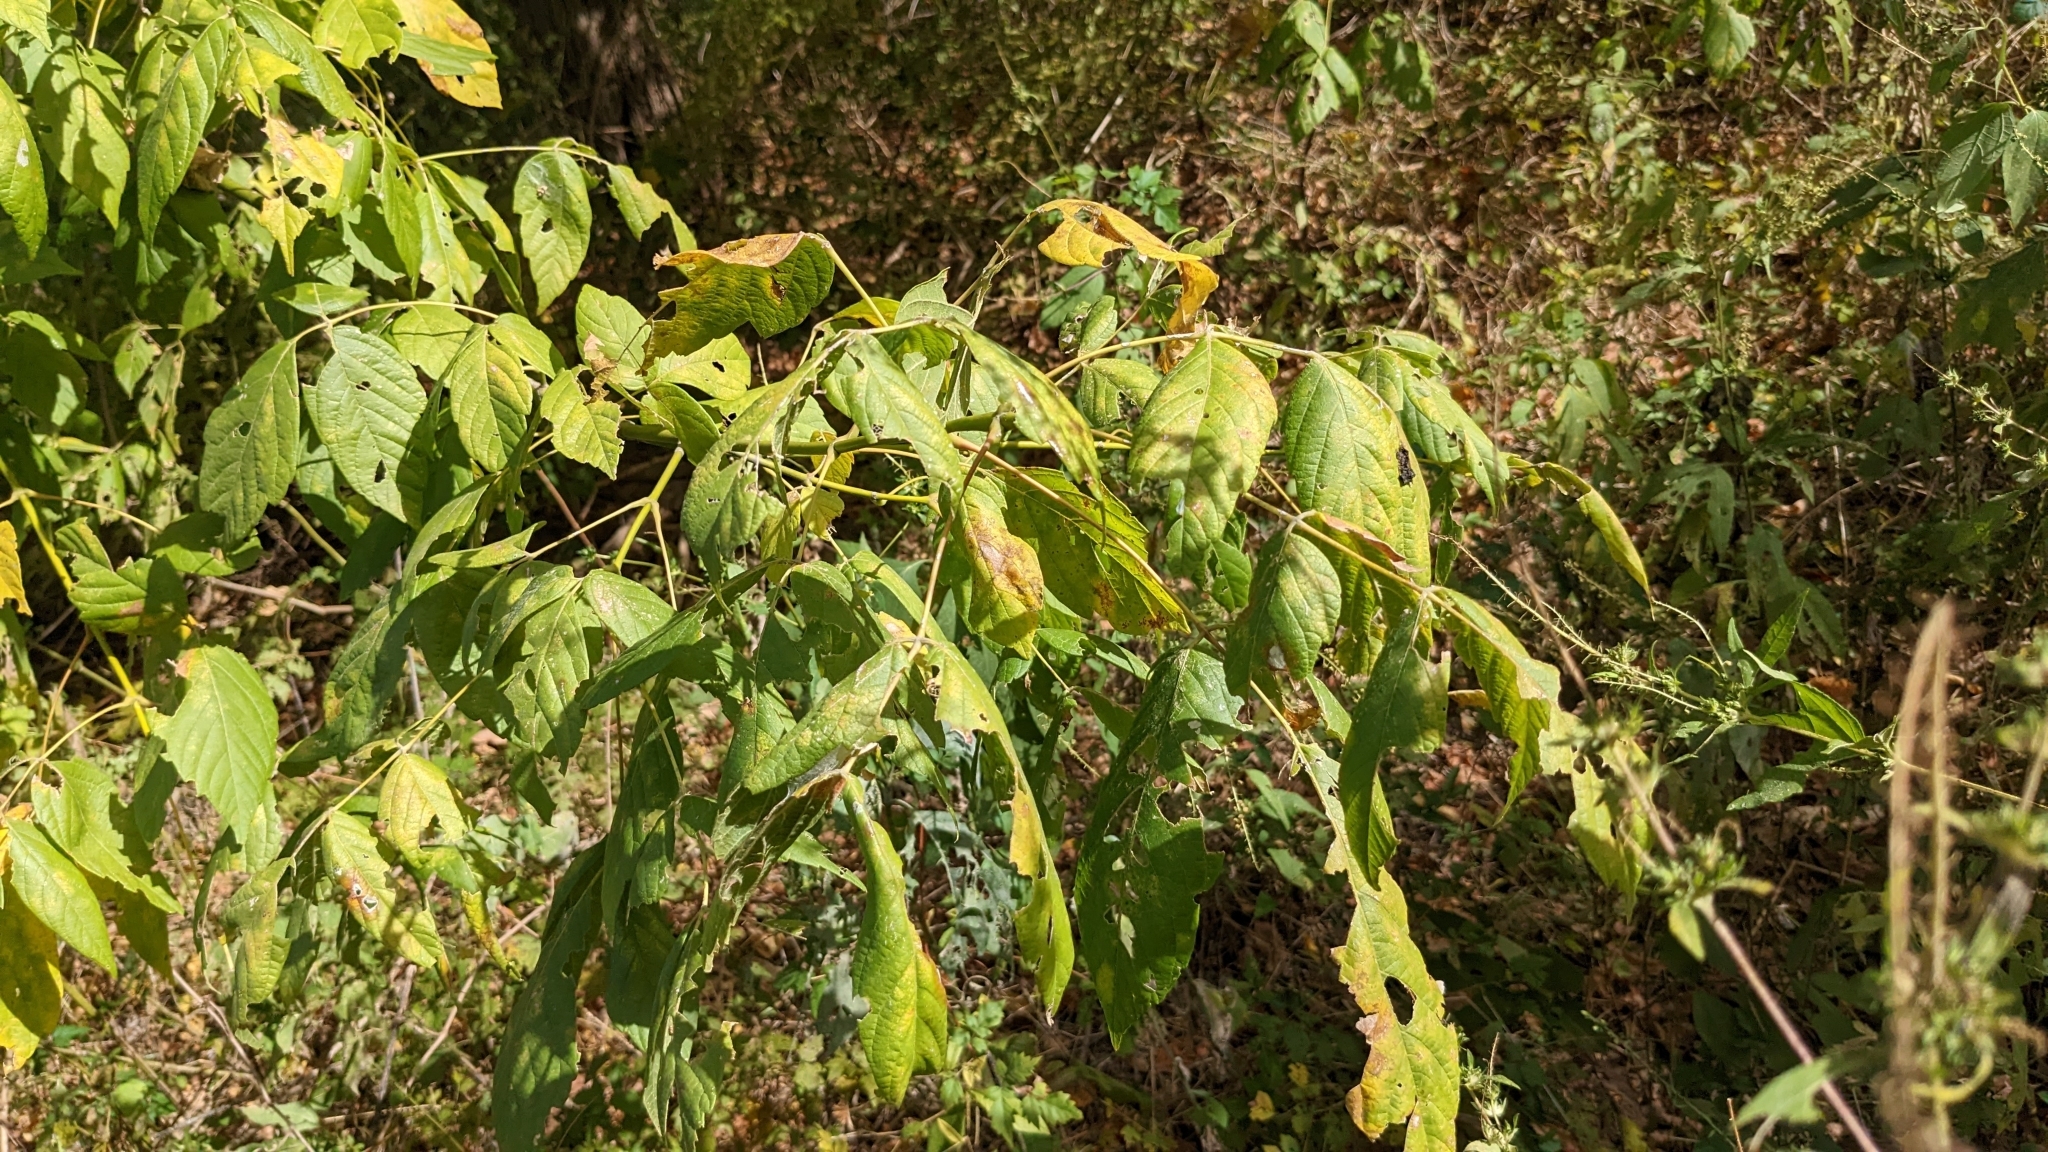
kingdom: Plantae
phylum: Tracheophyta
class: Magnoliopsida
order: Sapindales
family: Sapindaceae
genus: Acer
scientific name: Acer negundo
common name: Ashleaf maple
